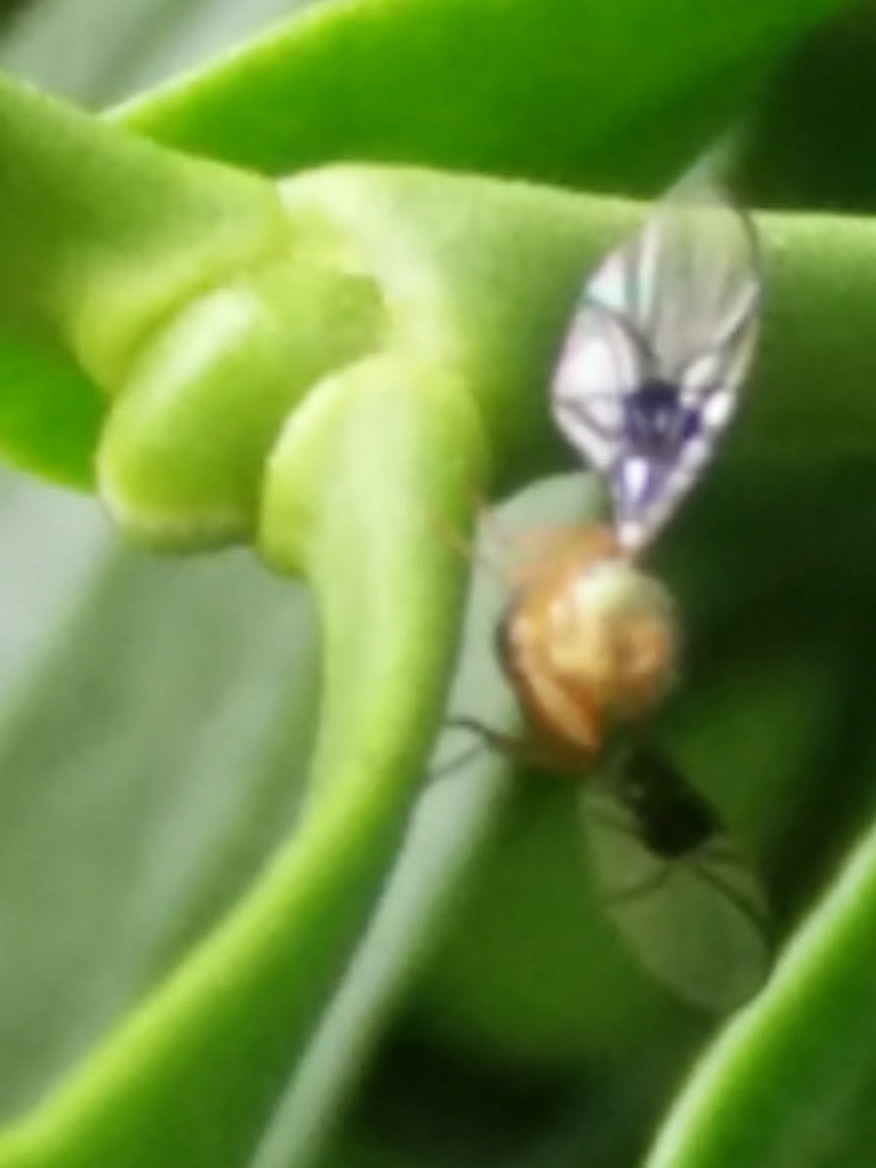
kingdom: Animalia
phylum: Arthropoda
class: Insecta
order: Diptera
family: Tephritidae
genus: Anomoia
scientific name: Anomoia purmunda
